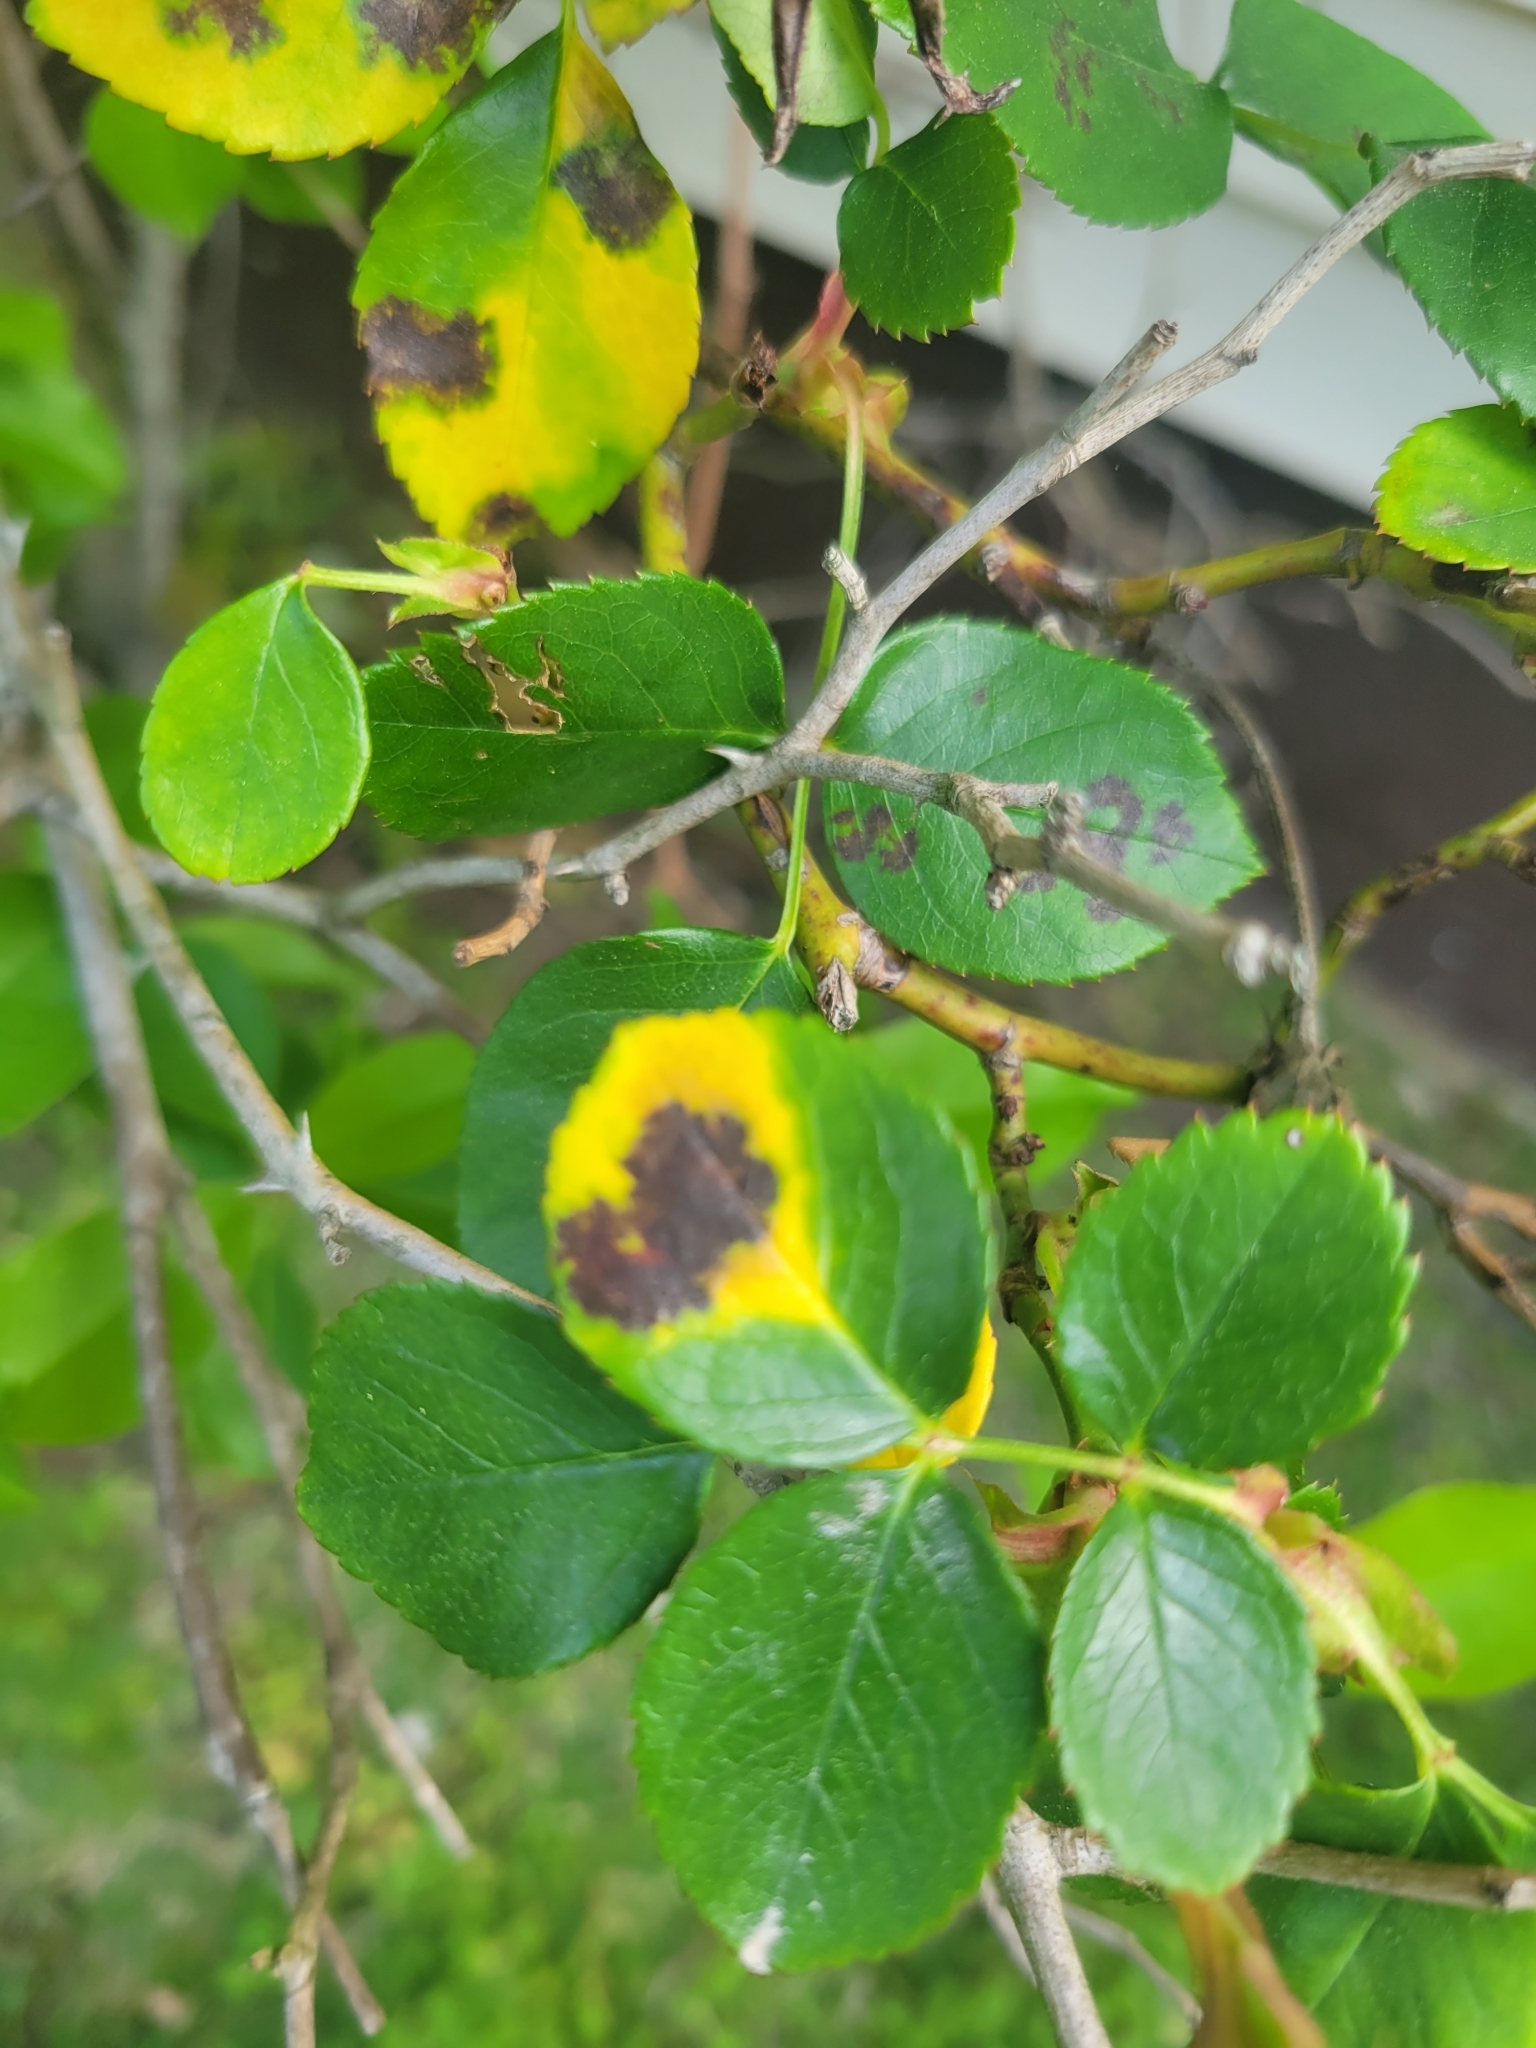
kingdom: Fungi
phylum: Ascomycota
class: Leotiomycetes
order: Helotiales
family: Drepanopezizaceae
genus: Diplocarpon
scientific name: Diplocarpon rosae
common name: Rose black-spot
